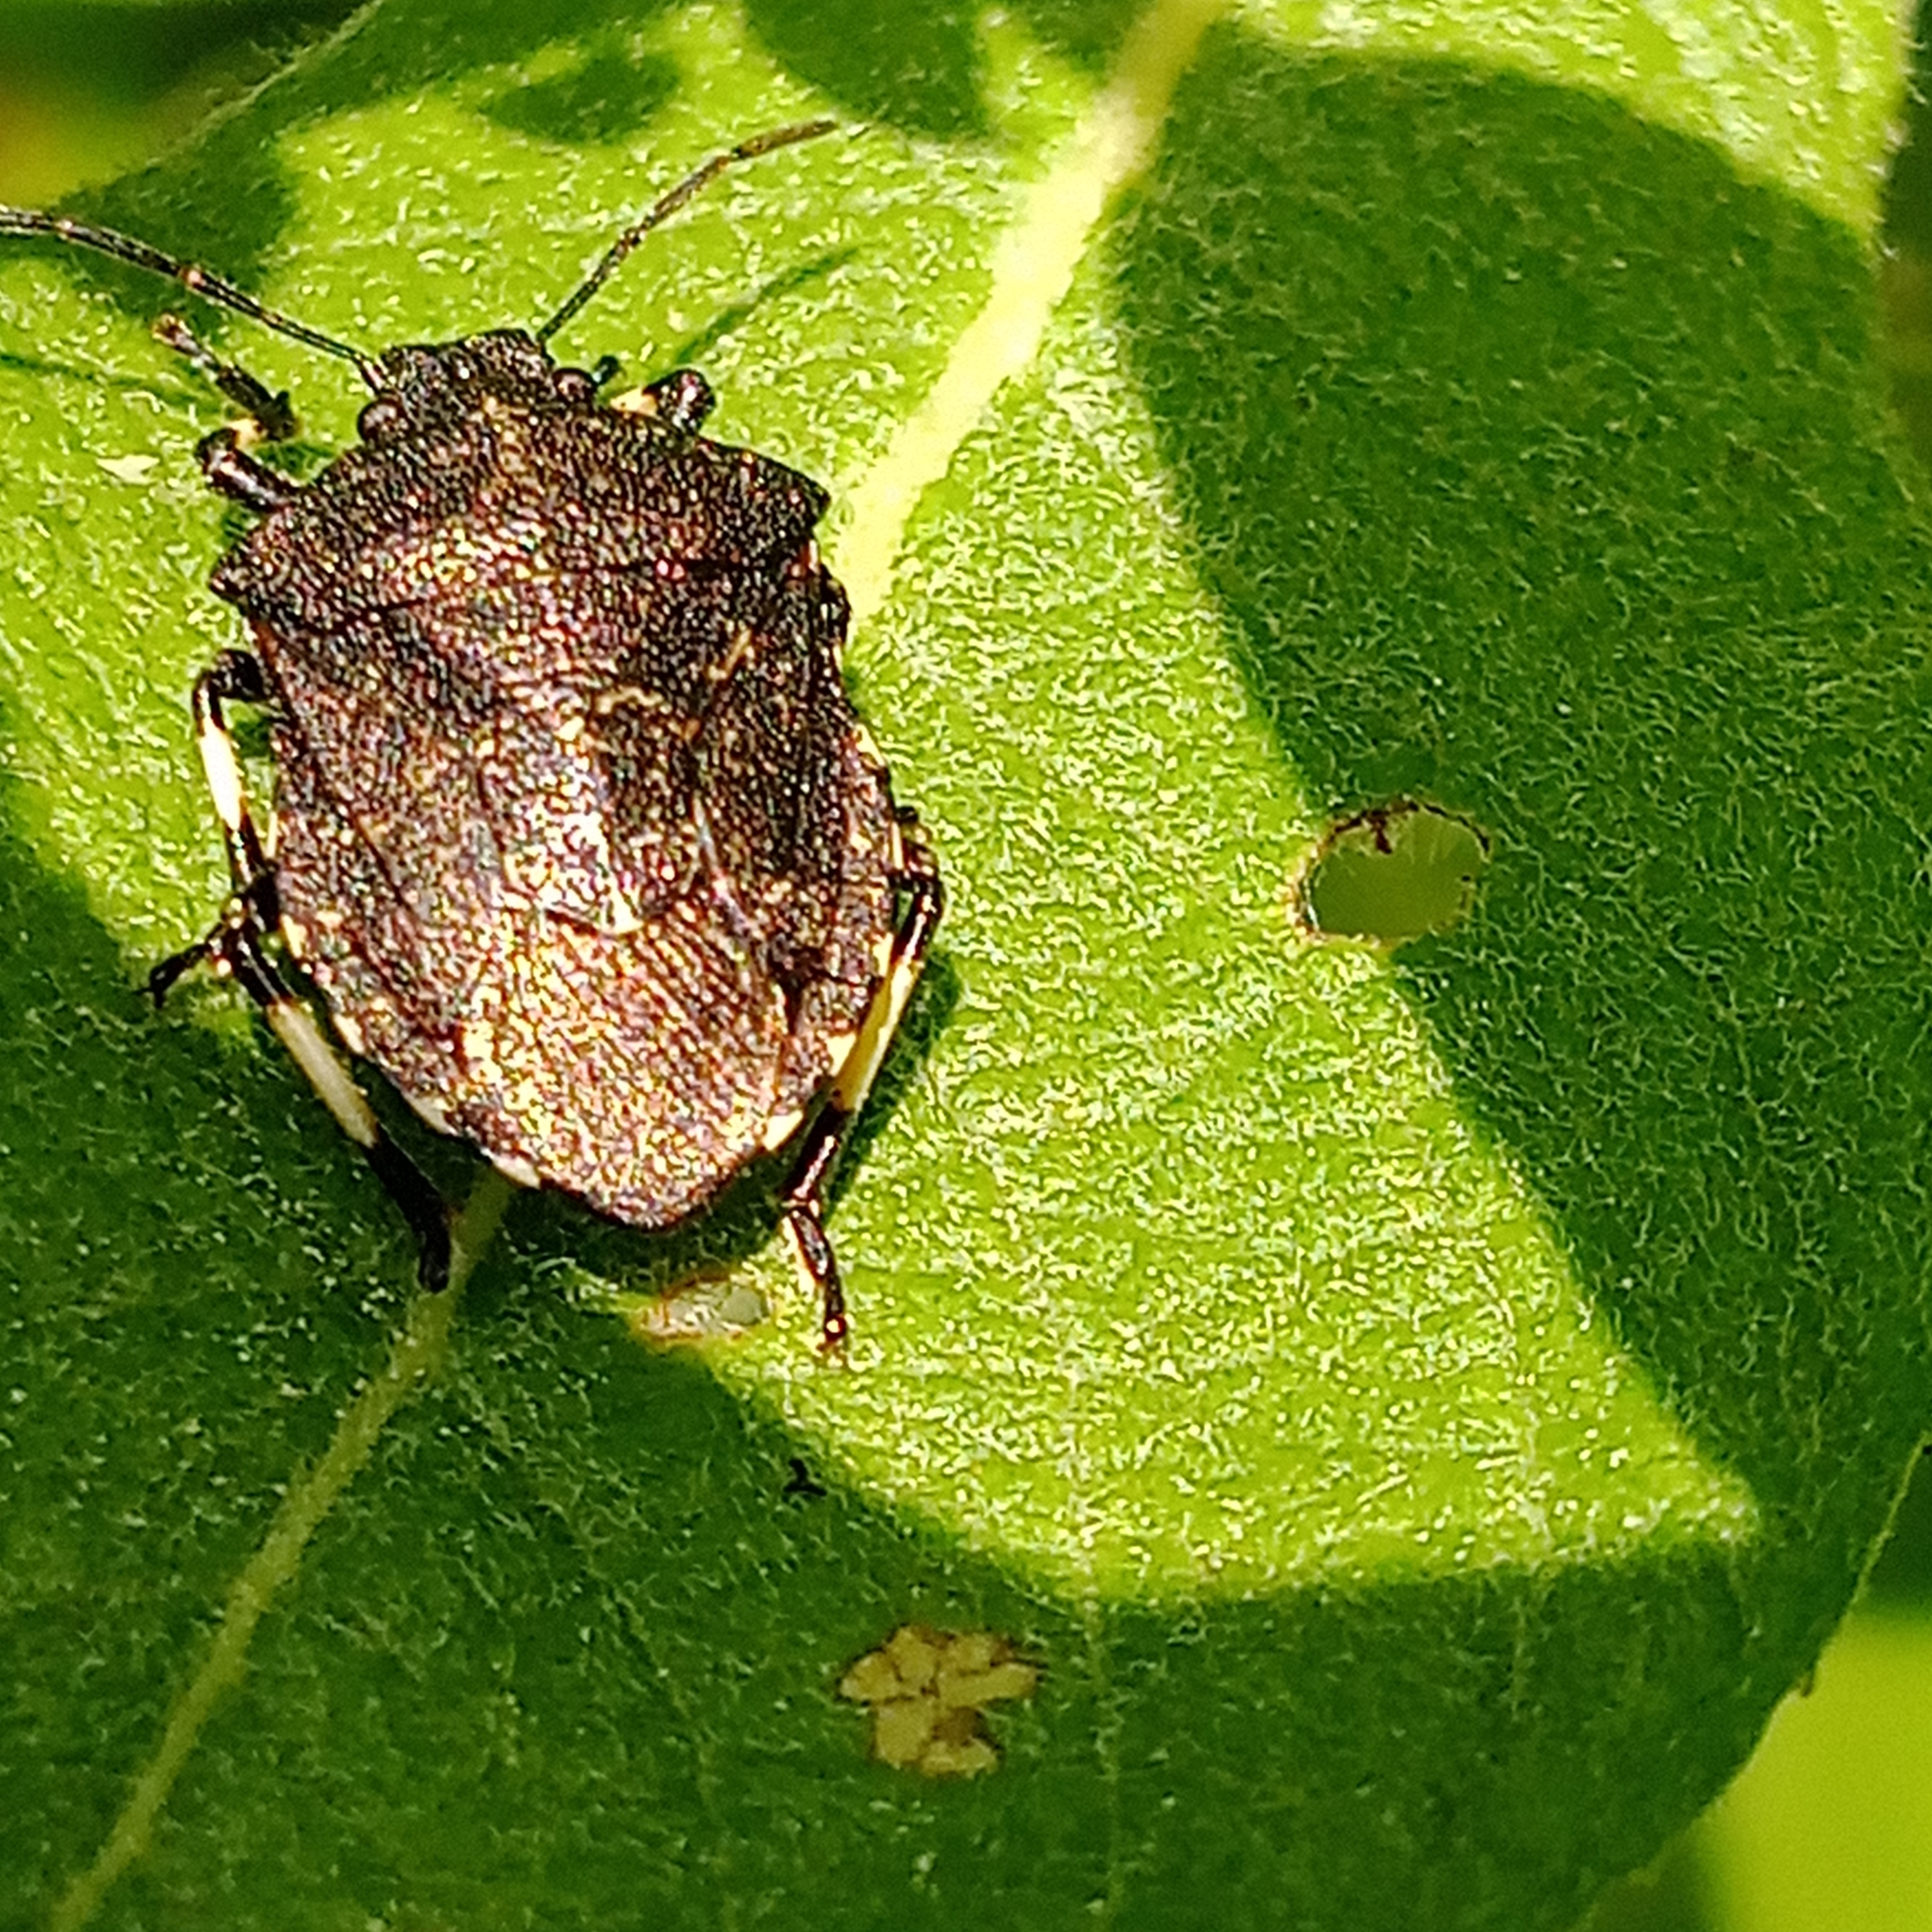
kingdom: Animalia
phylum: Arthropoda
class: Insecta
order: Hemiptera
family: Pentatomidae
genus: Rhacognathus
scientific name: Rhacognathus punctatus
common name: Heather bug
